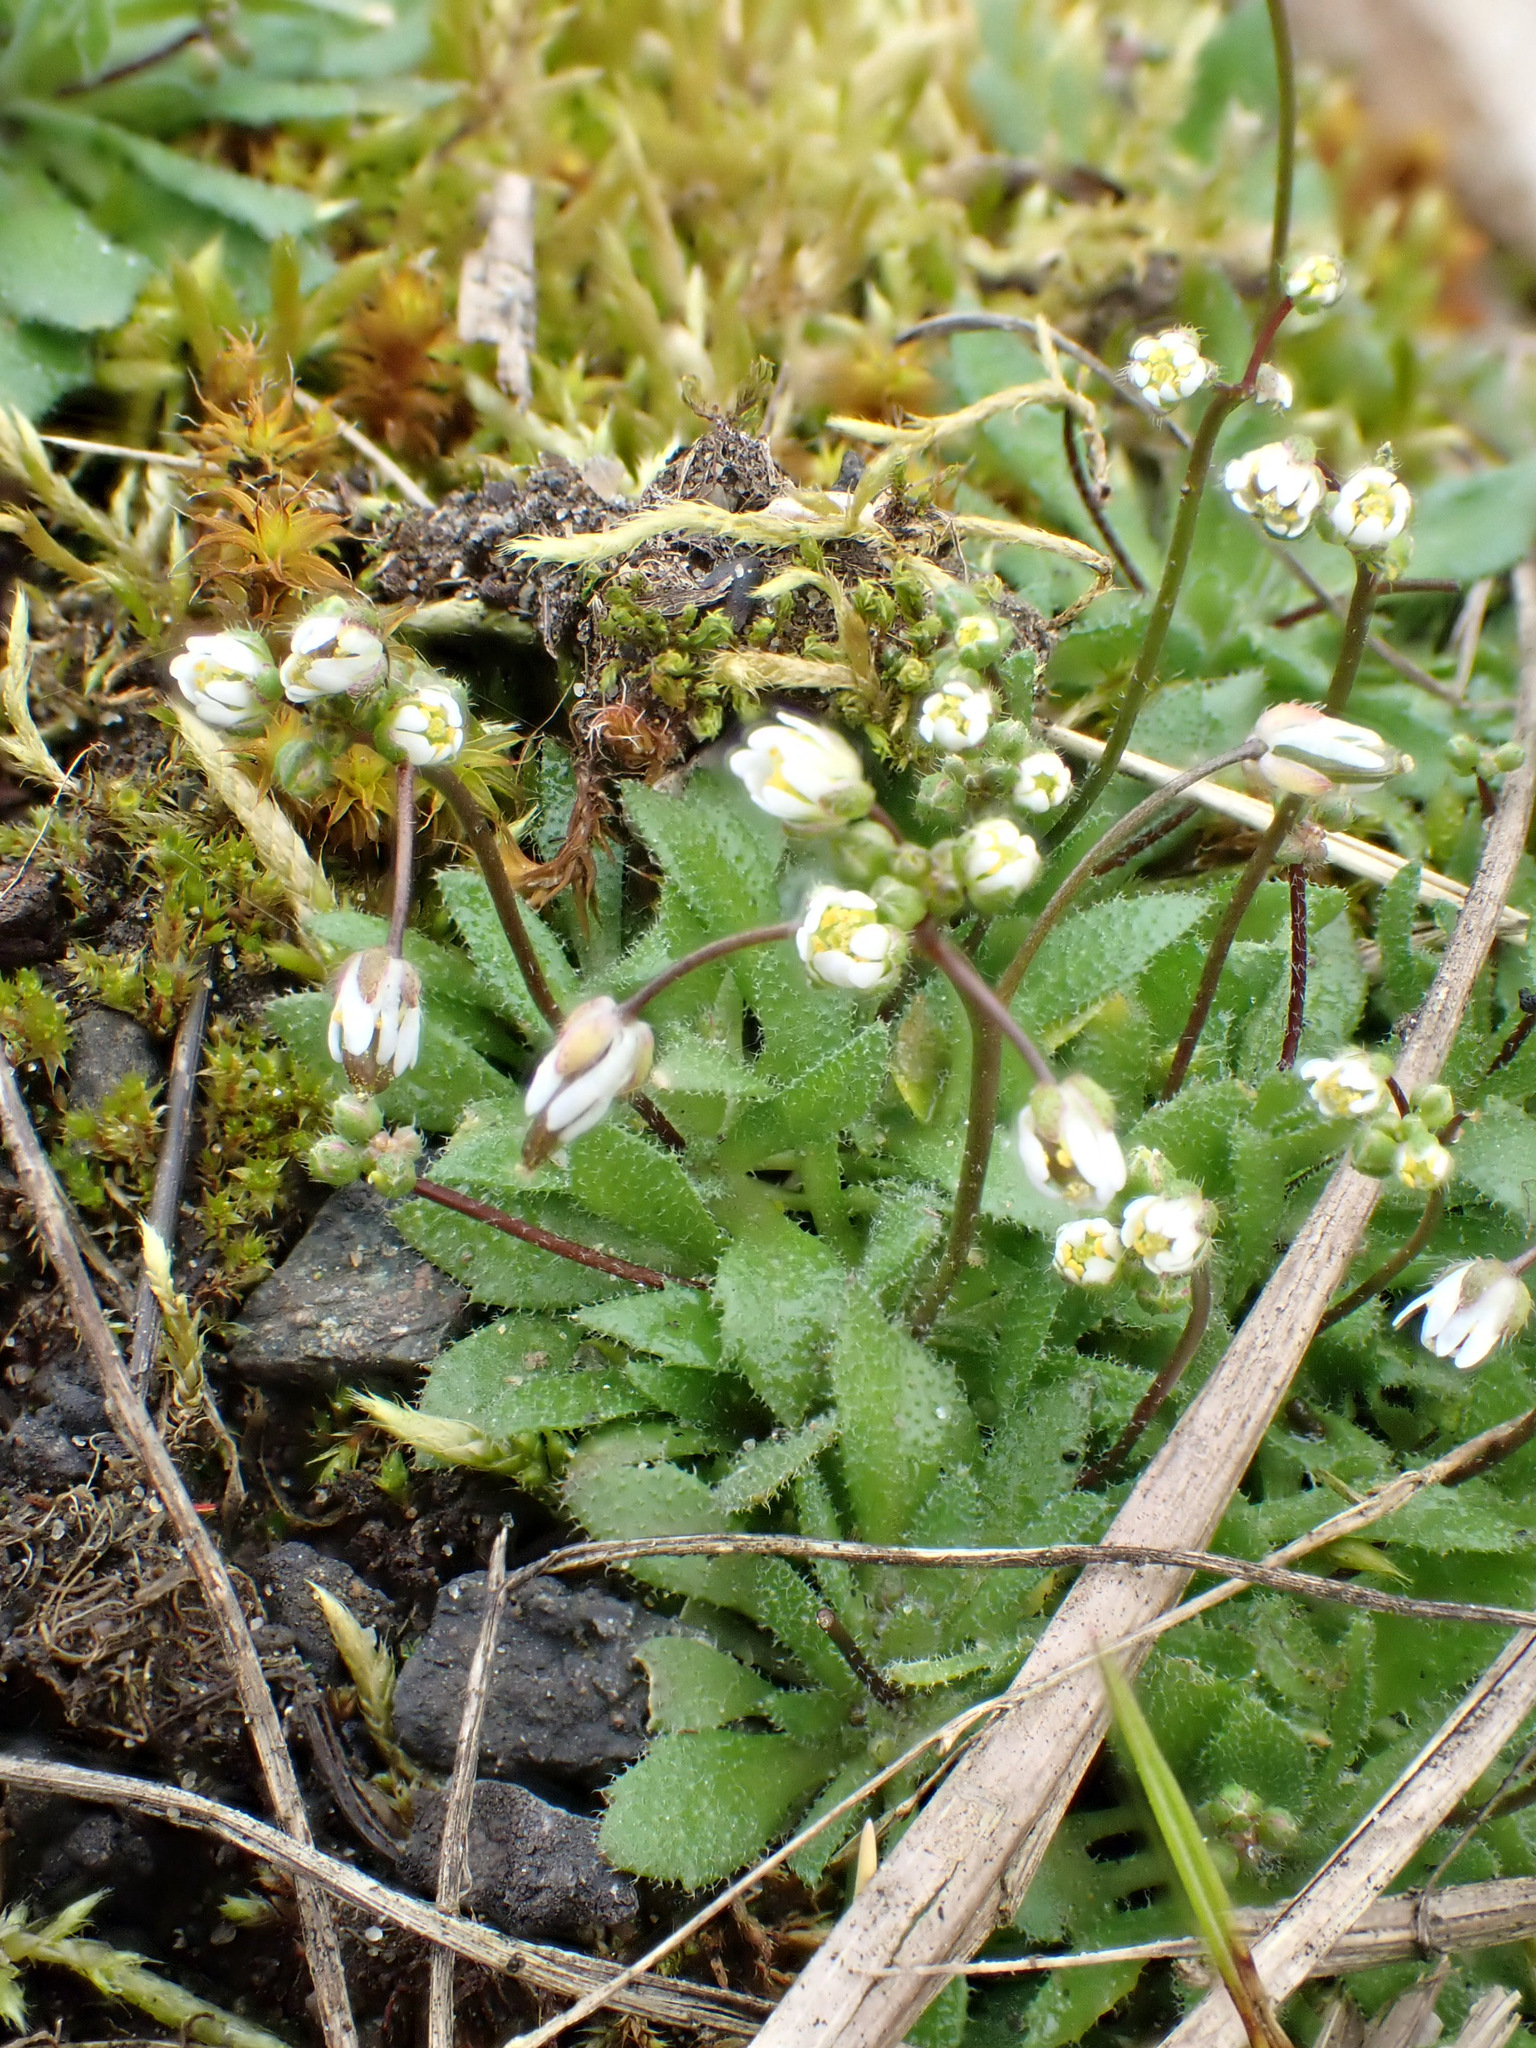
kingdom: Plantae
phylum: Tracheophyta
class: Magnoliopsida
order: Brassicales
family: Brassicaceae
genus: Draba
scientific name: Draba verna
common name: Spring draba
